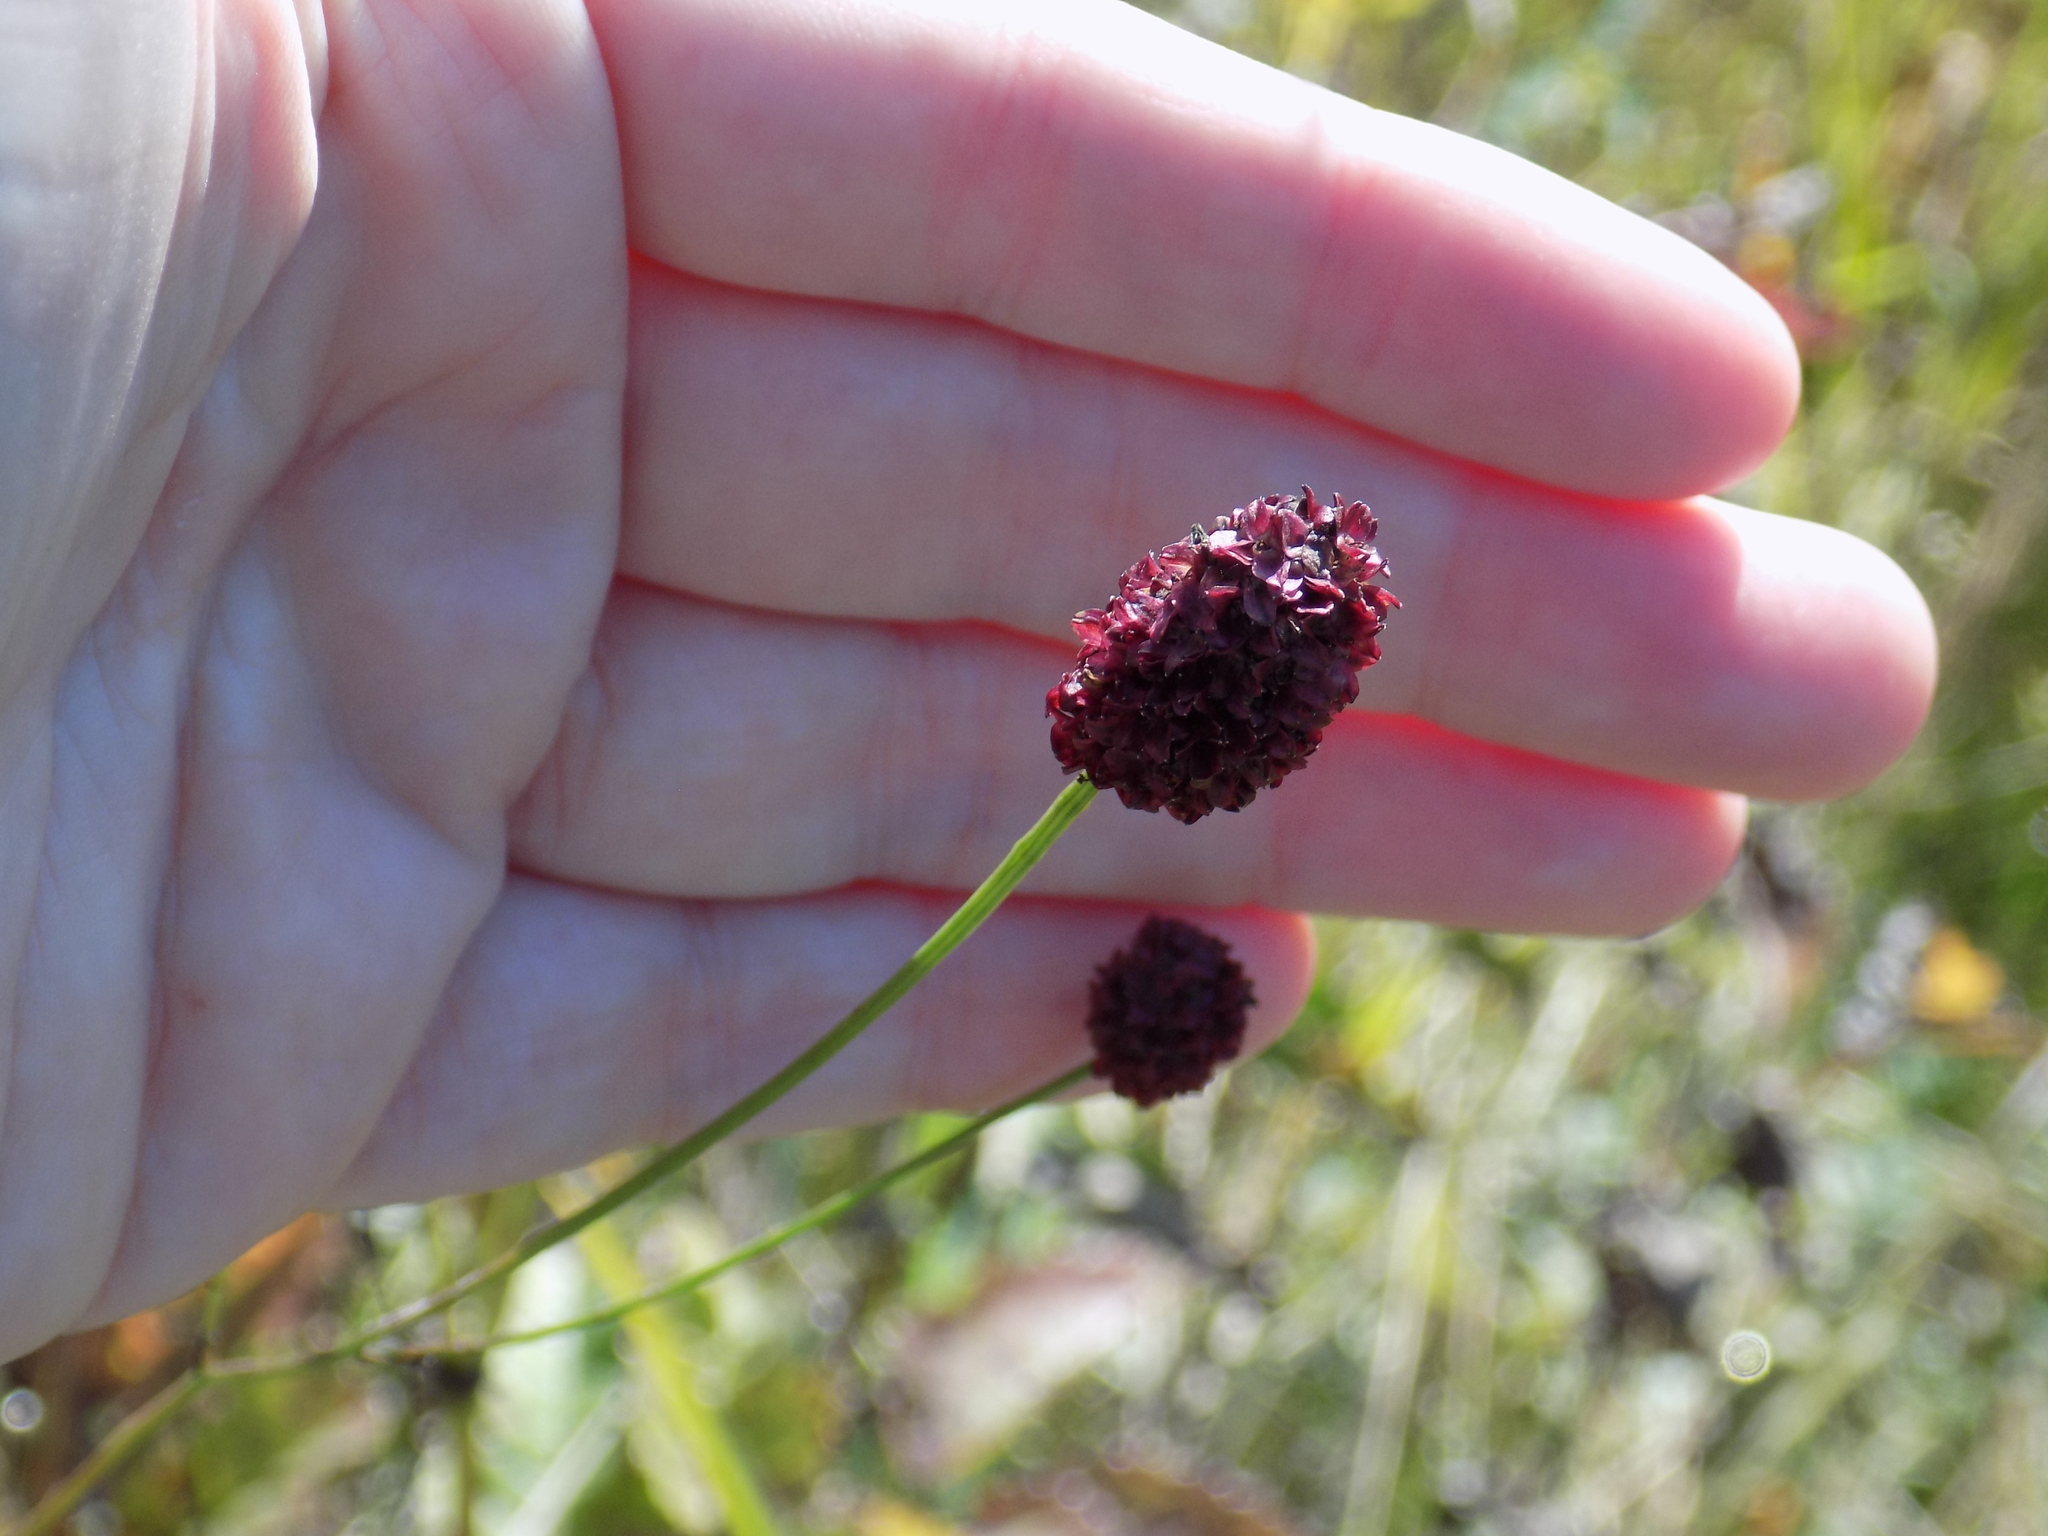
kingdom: Plantae
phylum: Tracheophyta
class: Magnoliopsida
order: Rosales
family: Rosaceae
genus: Sanguisorba
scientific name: Sanguisorba officinalis
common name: Great burnet
